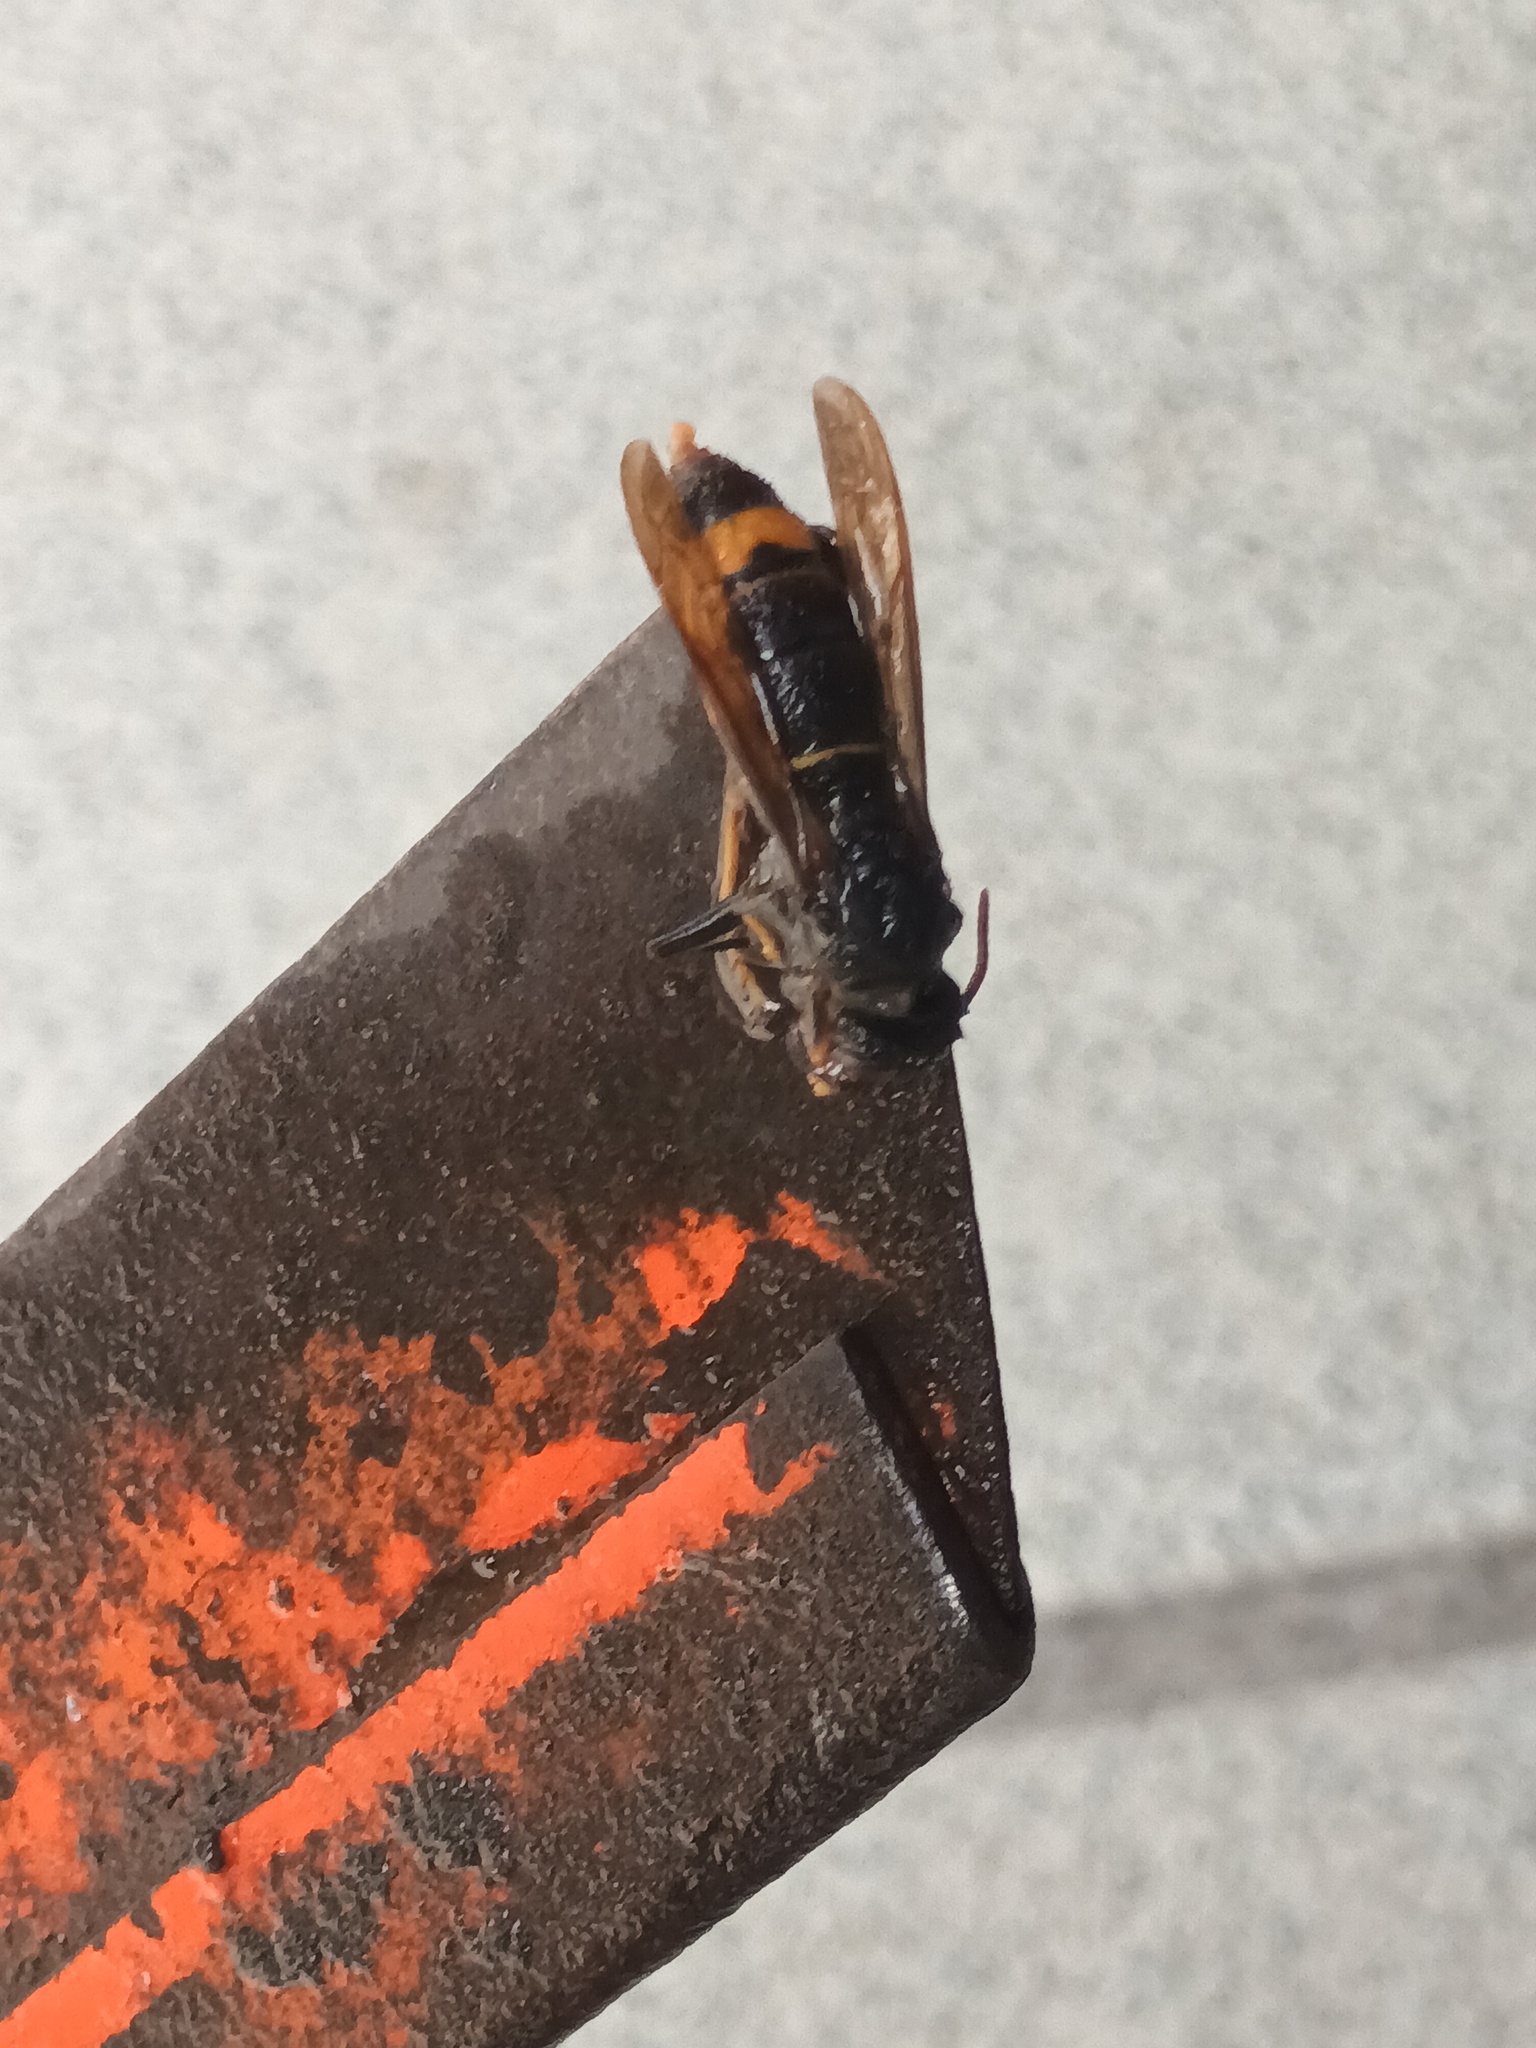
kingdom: Animalia
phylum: Arthropoda
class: Insecta
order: Hymenoptera
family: Vespidae
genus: Vespa
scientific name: Vespa velutina
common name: Asian hornet
